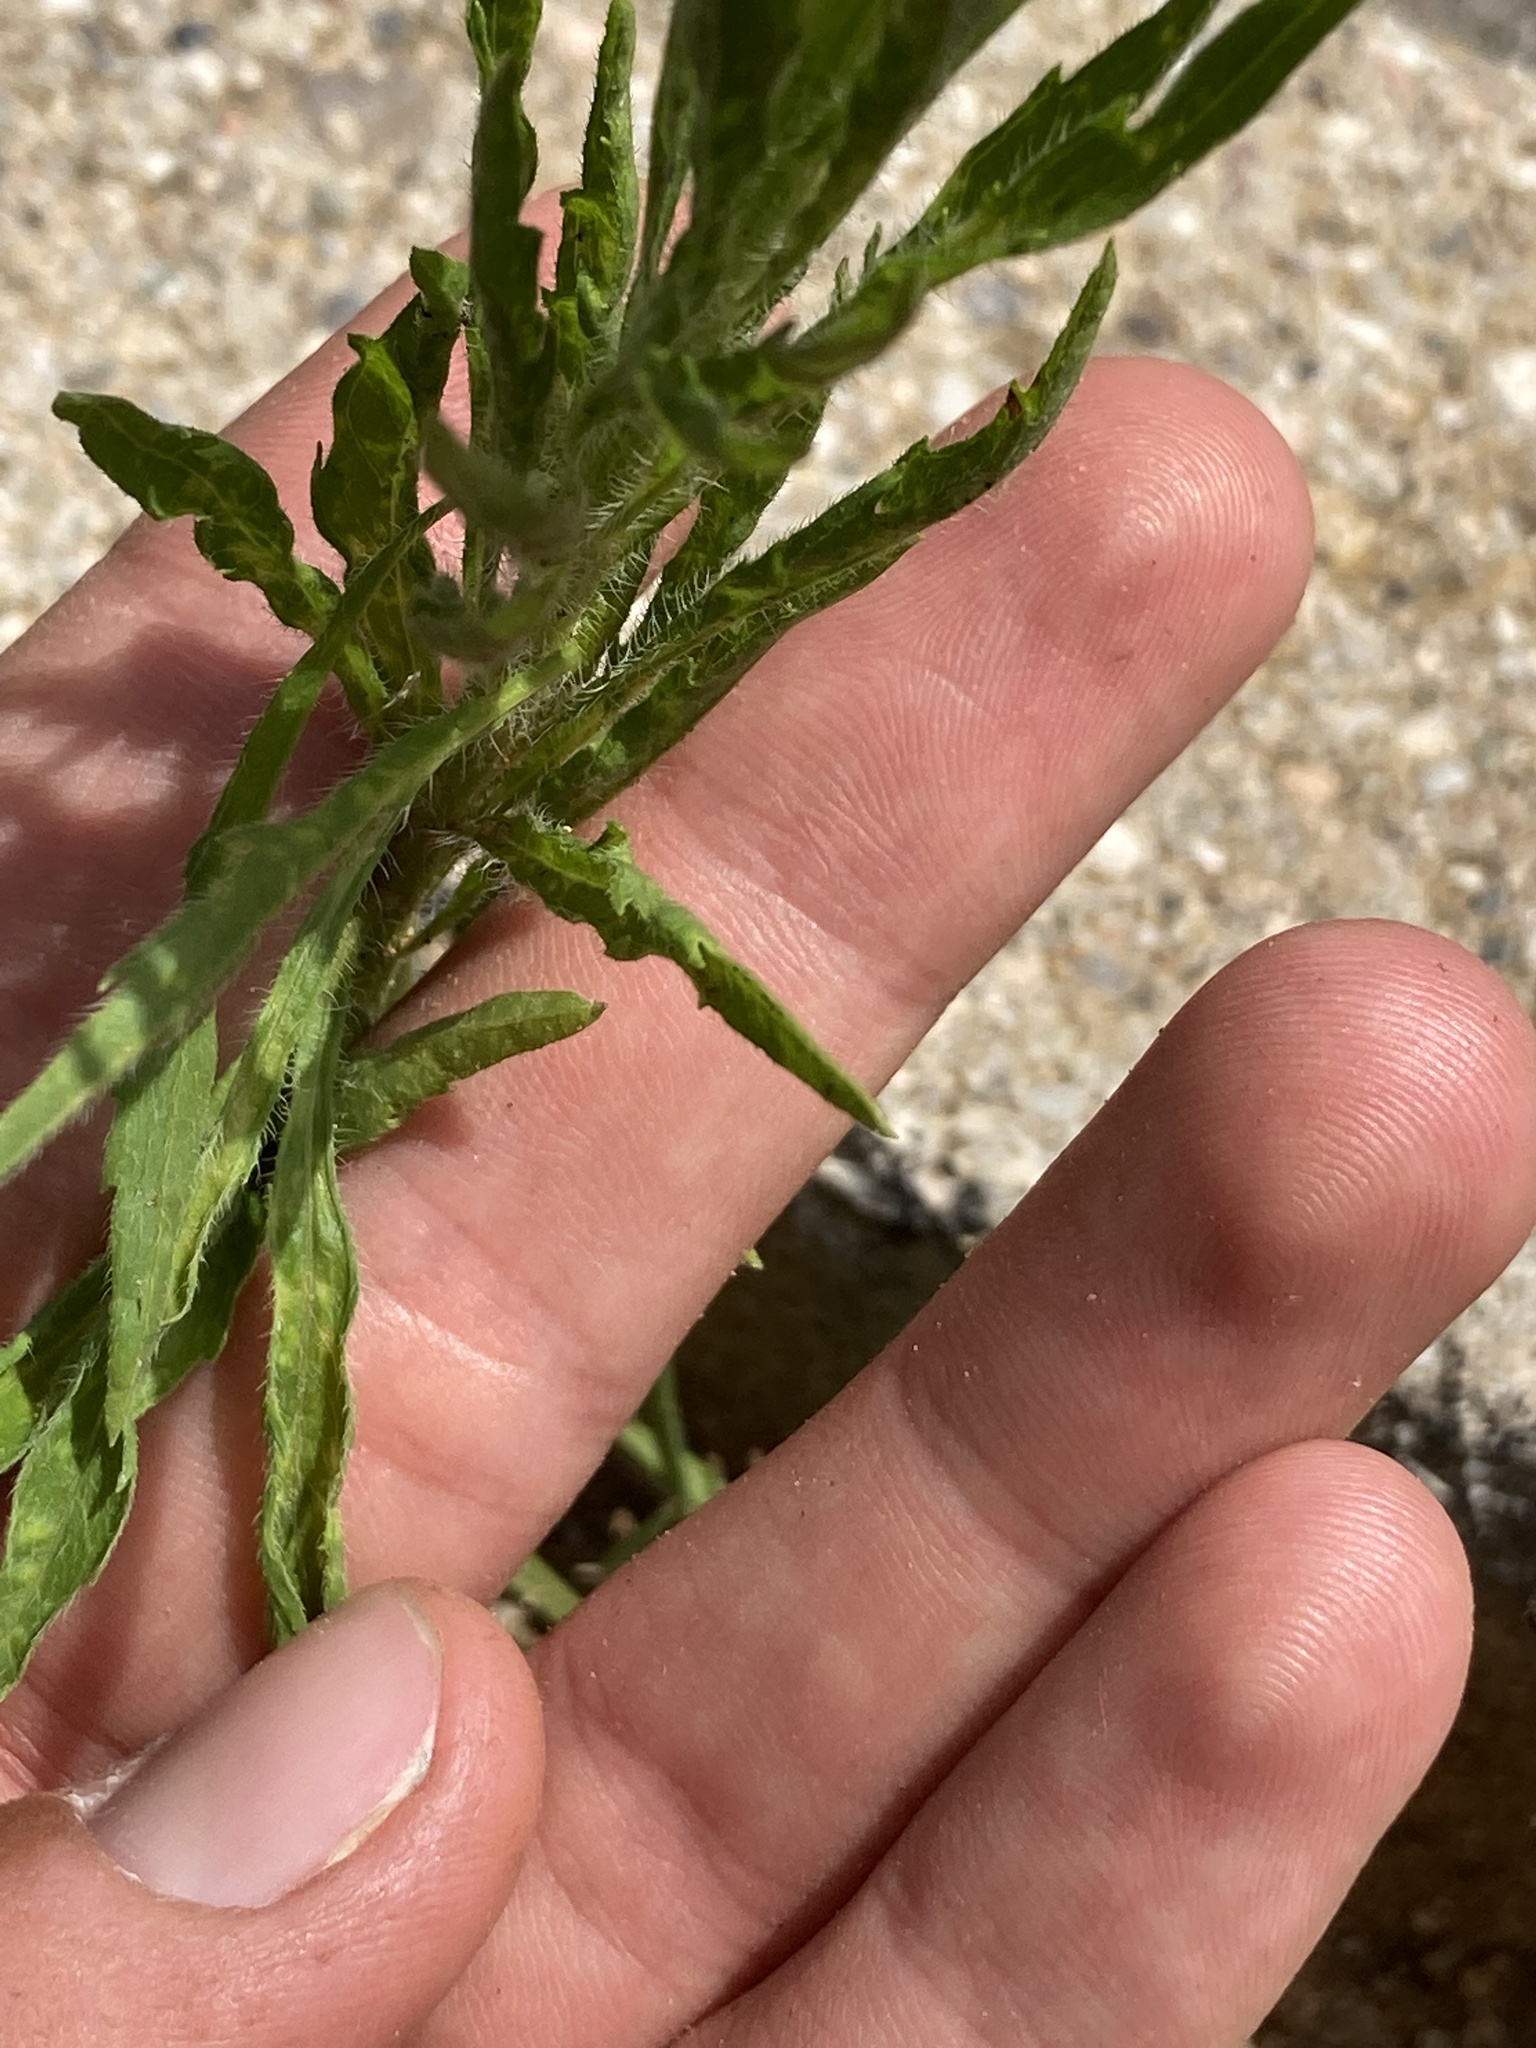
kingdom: Plantae
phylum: Tracheophyta
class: Magnoliopsida
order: Asterales
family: Asteraceae
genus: Erigeron
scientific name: Erigeron canadensis
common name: Canadian fleabane
